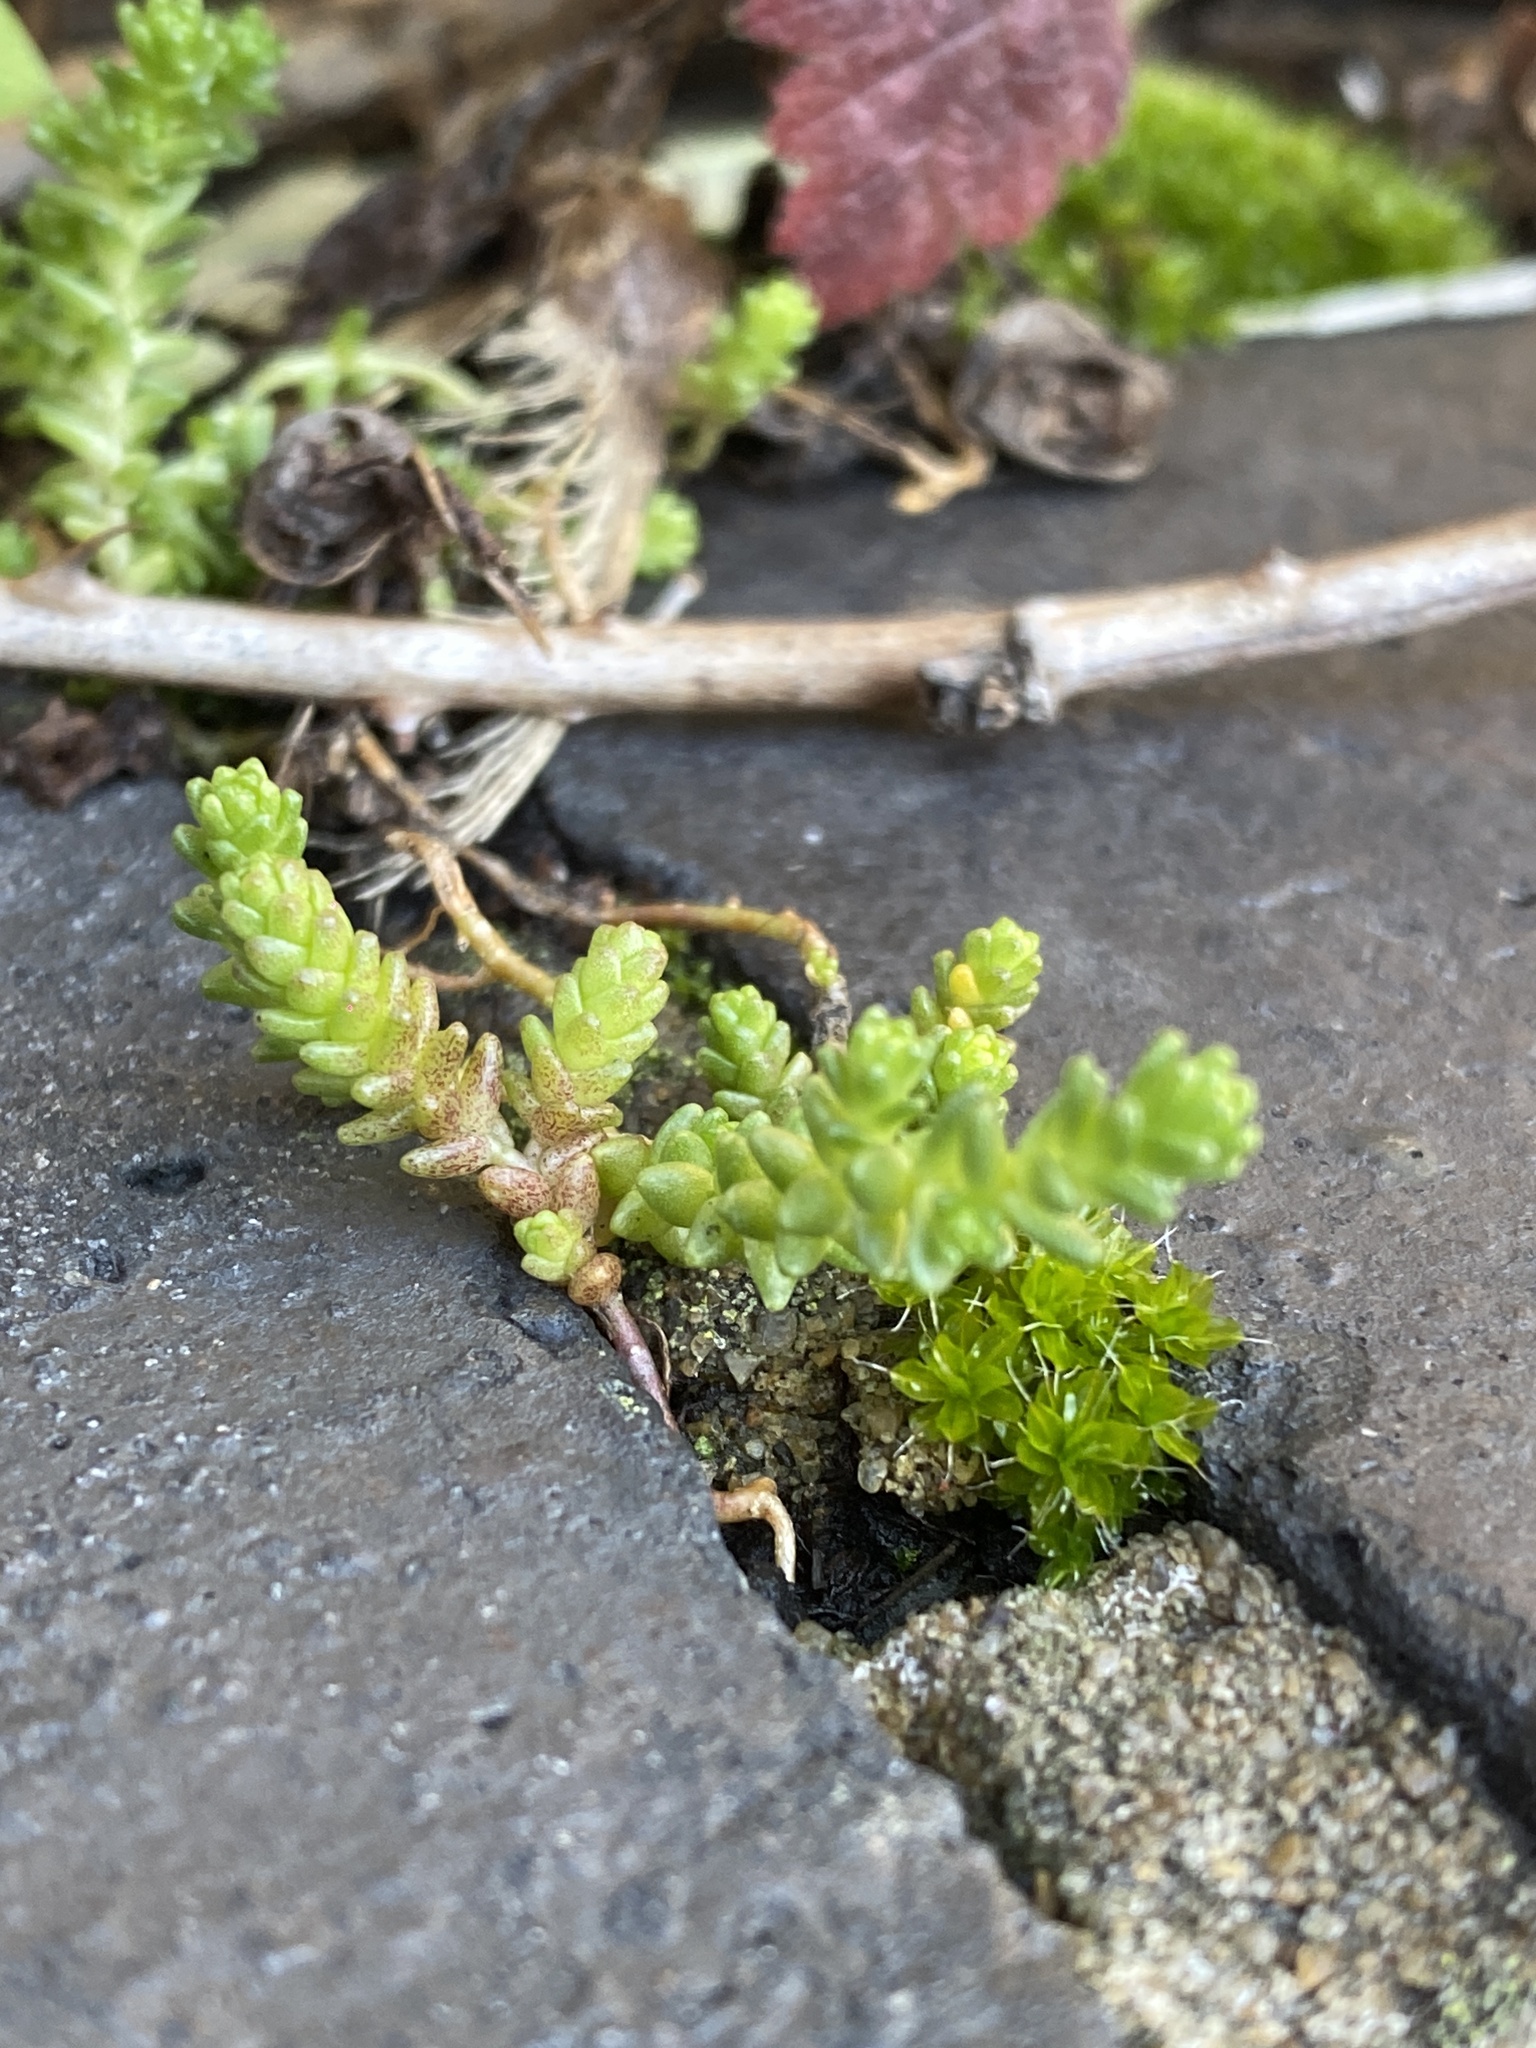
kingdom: Plantae
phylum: Tracheophyta
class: Magnoliopsida
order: Saxifragales
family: Crassulaceae
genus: Sedum
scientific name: Sedum acre
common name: Biting stonecrop
